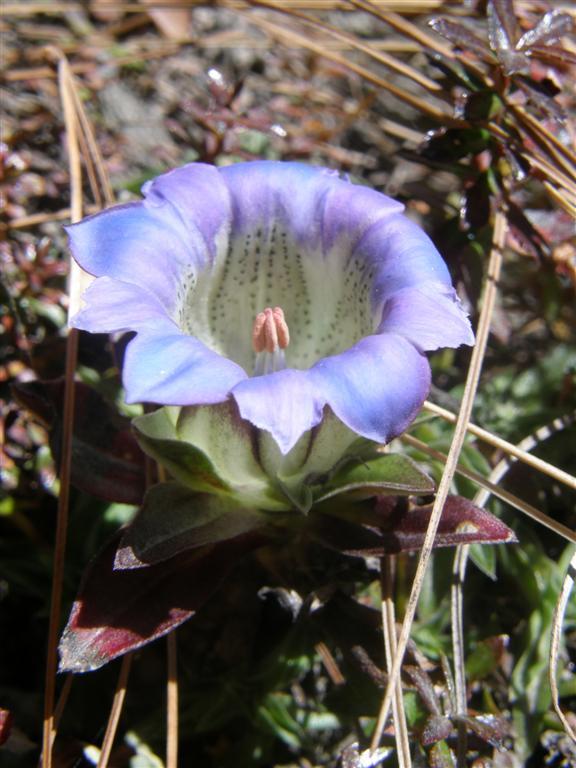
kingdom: Plantae
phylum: Tracheophyta
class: Magnoliopsida
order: Gentianales
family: Gentianaceae
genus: Gentiana
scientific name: Gentiana depressa
